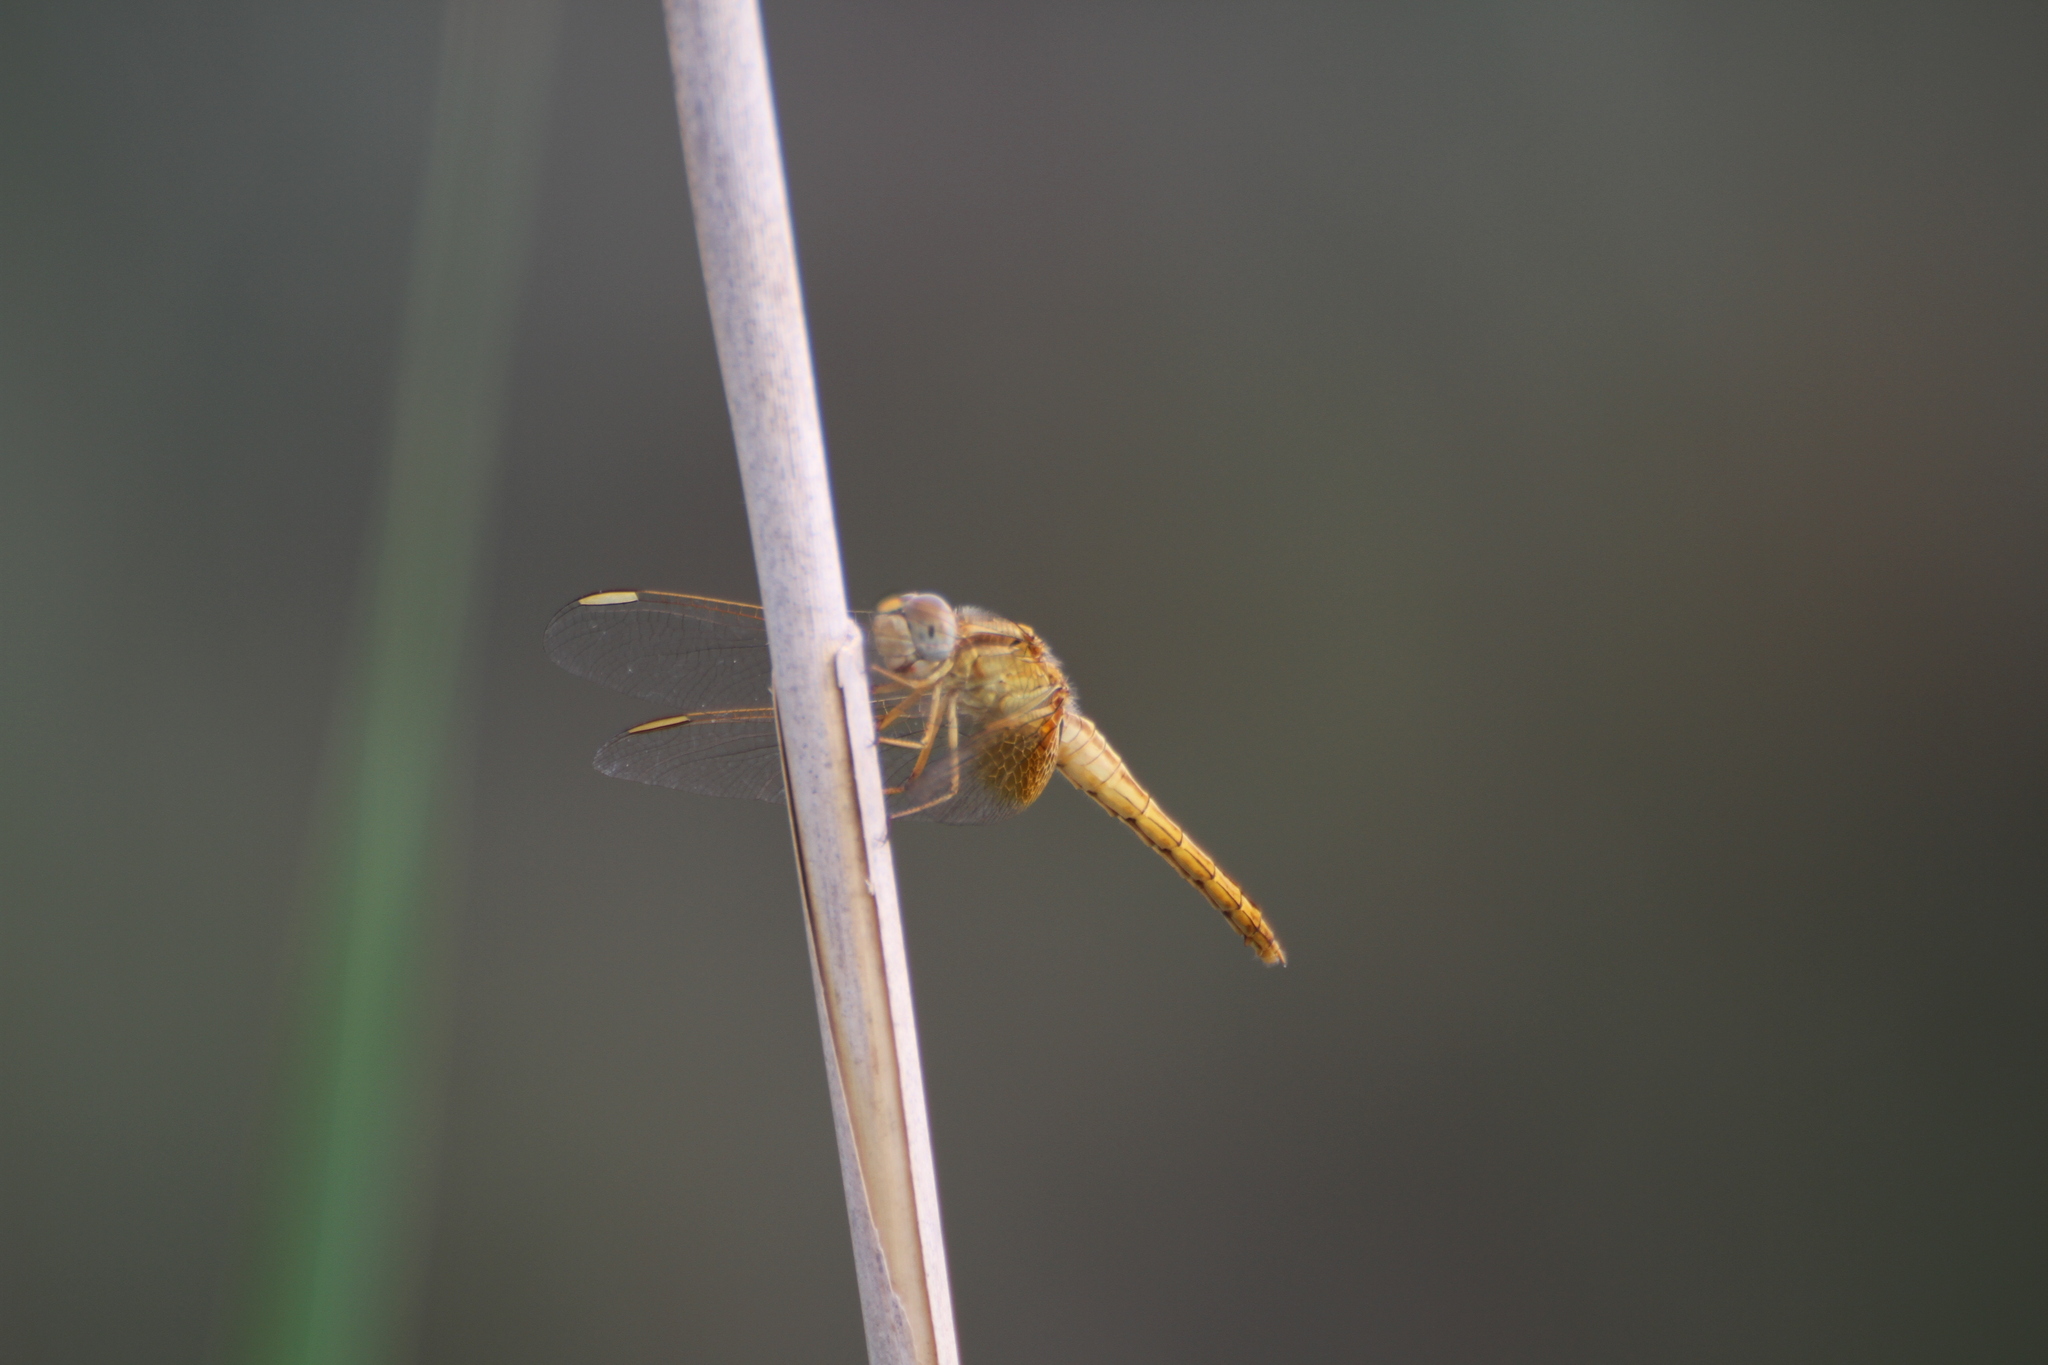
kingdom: Animalia
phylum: Arthropoda
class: Insecta
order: Odonata
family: Libellulidae
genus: Crocothemis
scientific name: Crocothemis erythraea
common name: Scarlet dragonfly
